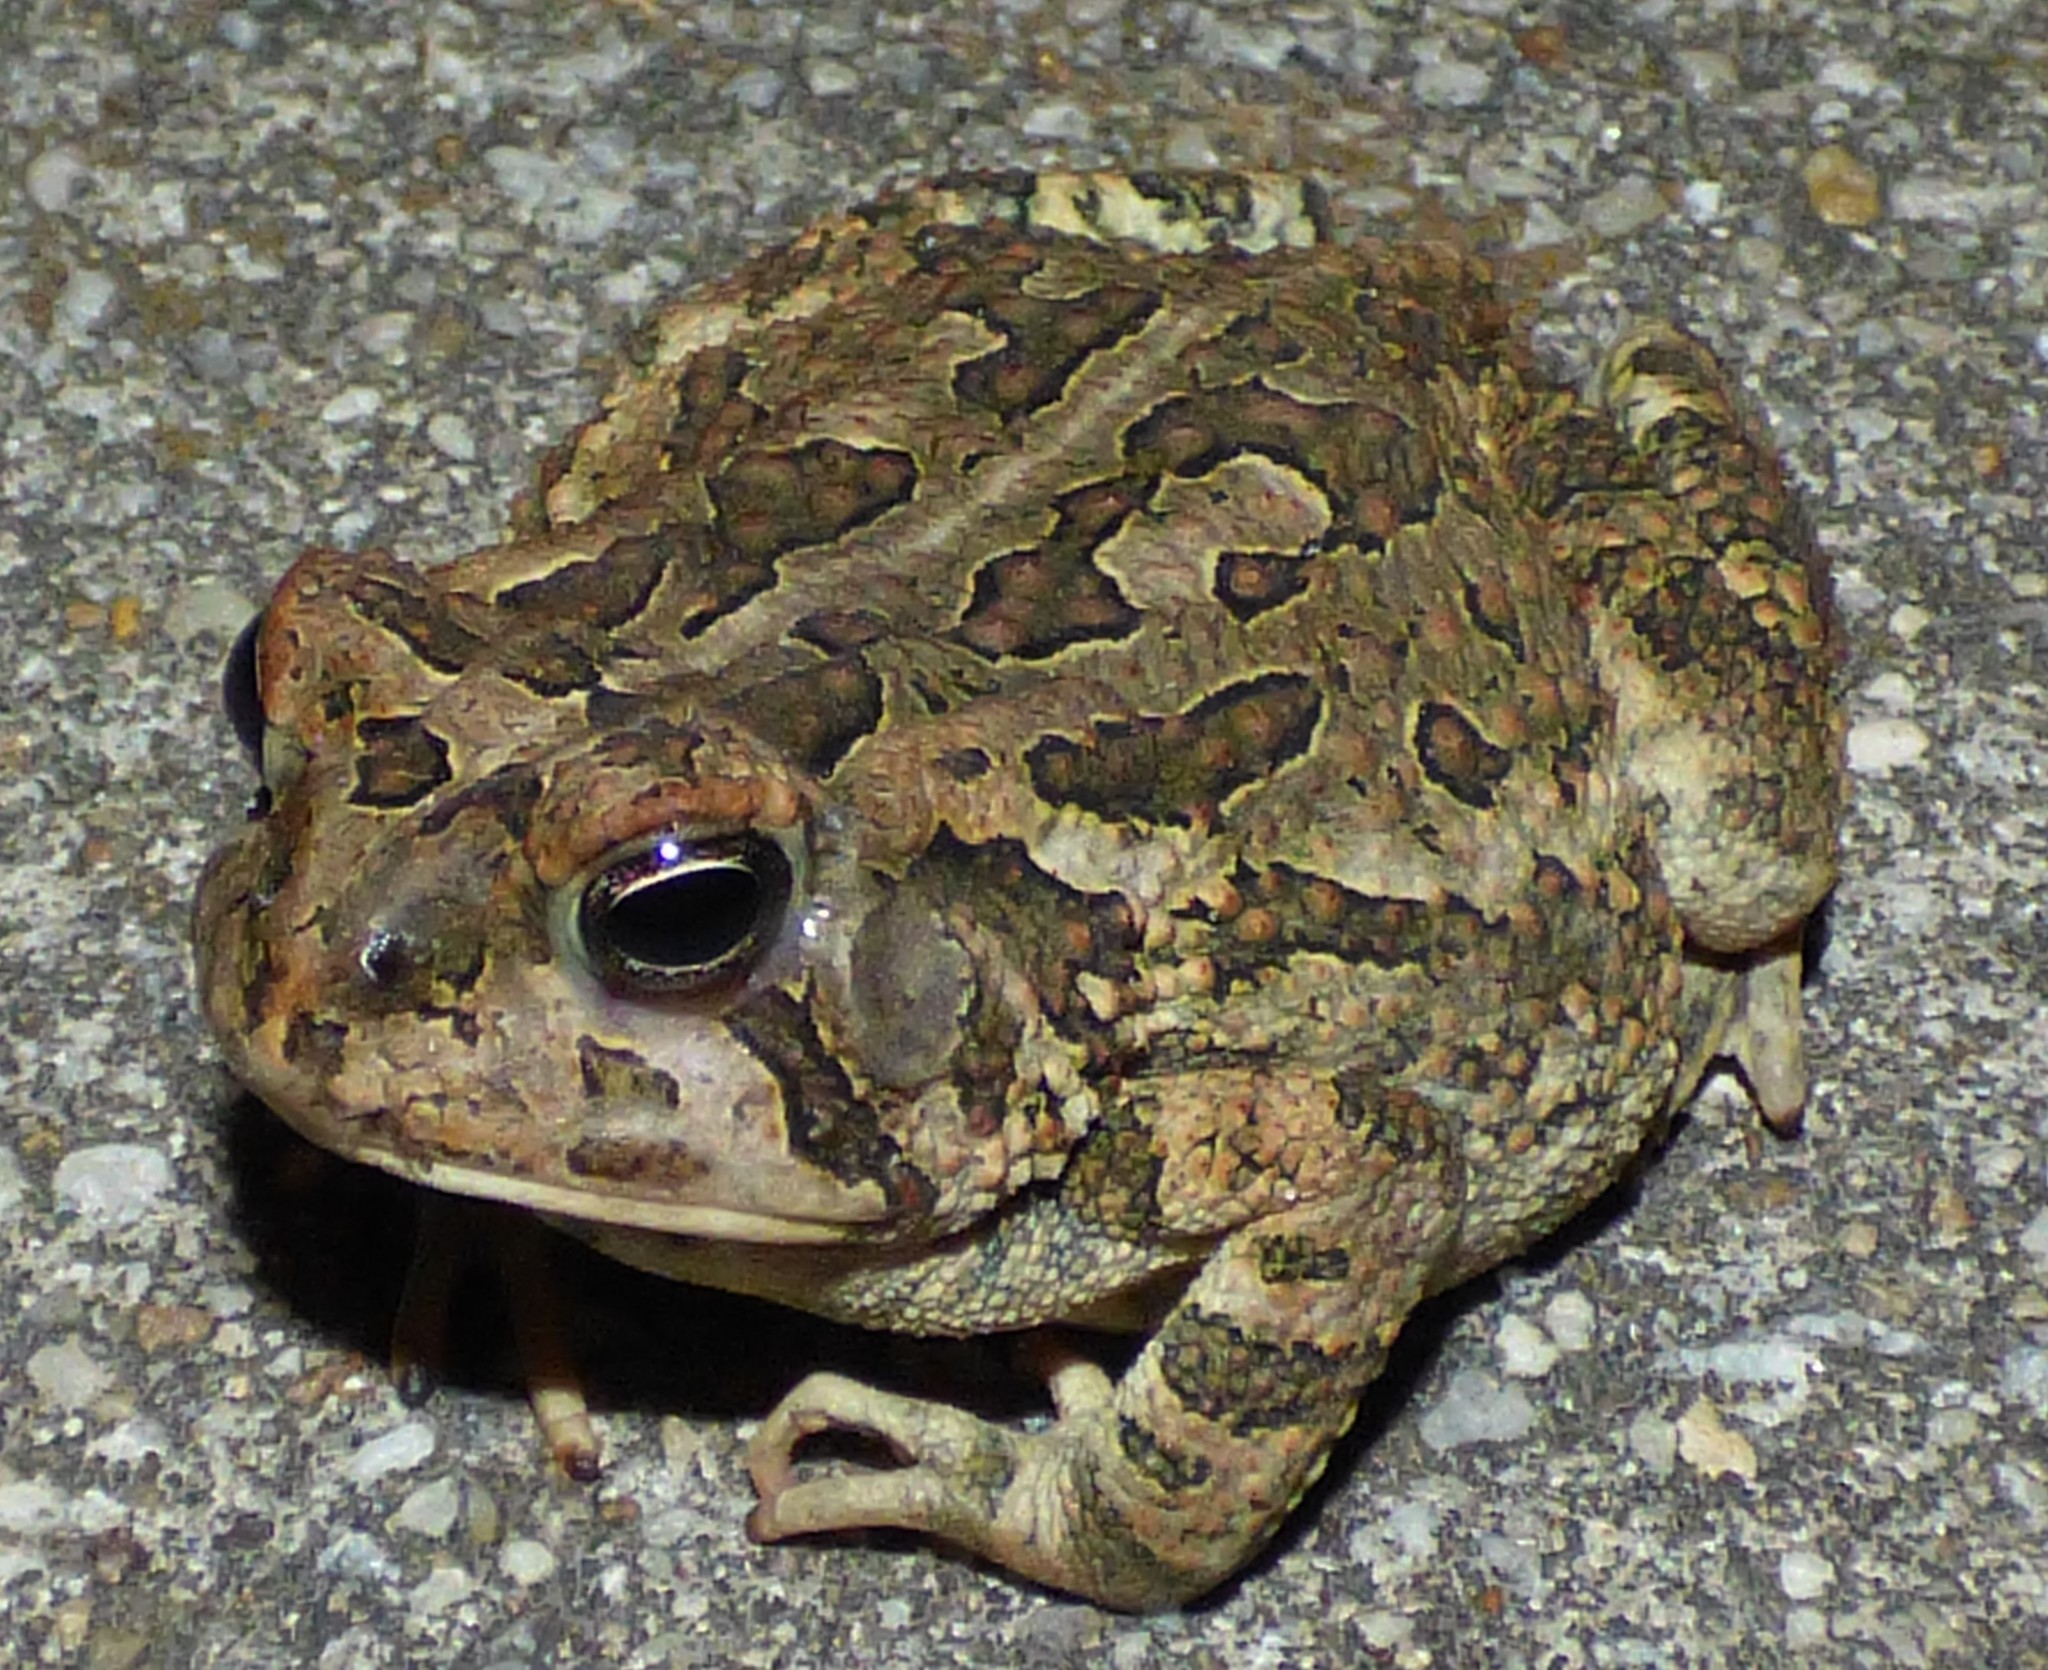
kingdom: Animalia
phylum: Chordata
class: Amphibia
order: Anura
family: Bufonidae
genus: Anaxyrus
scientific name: Anaxyrus fowleri
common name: Fowler's toad
